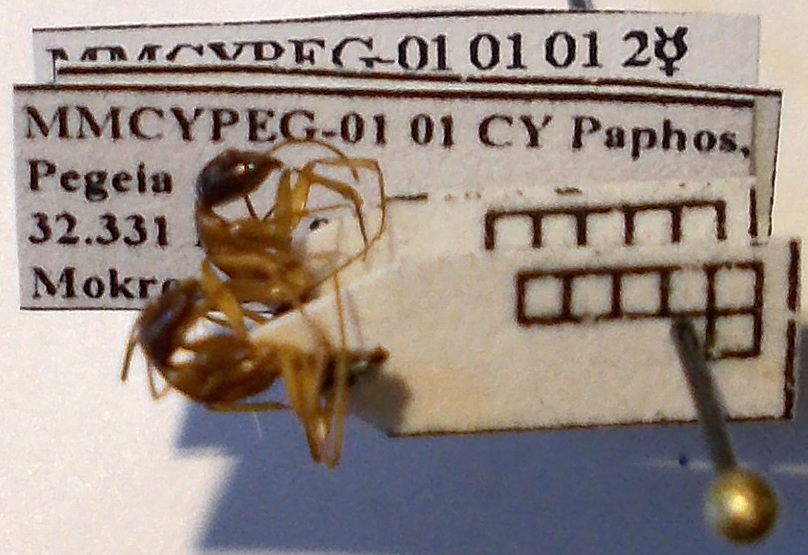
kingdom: Animalia
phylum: Arthropoda
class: Insecta
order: Hymenoptera
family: Formicidae
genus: Camponotus
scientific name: Camponotus baldaccii
